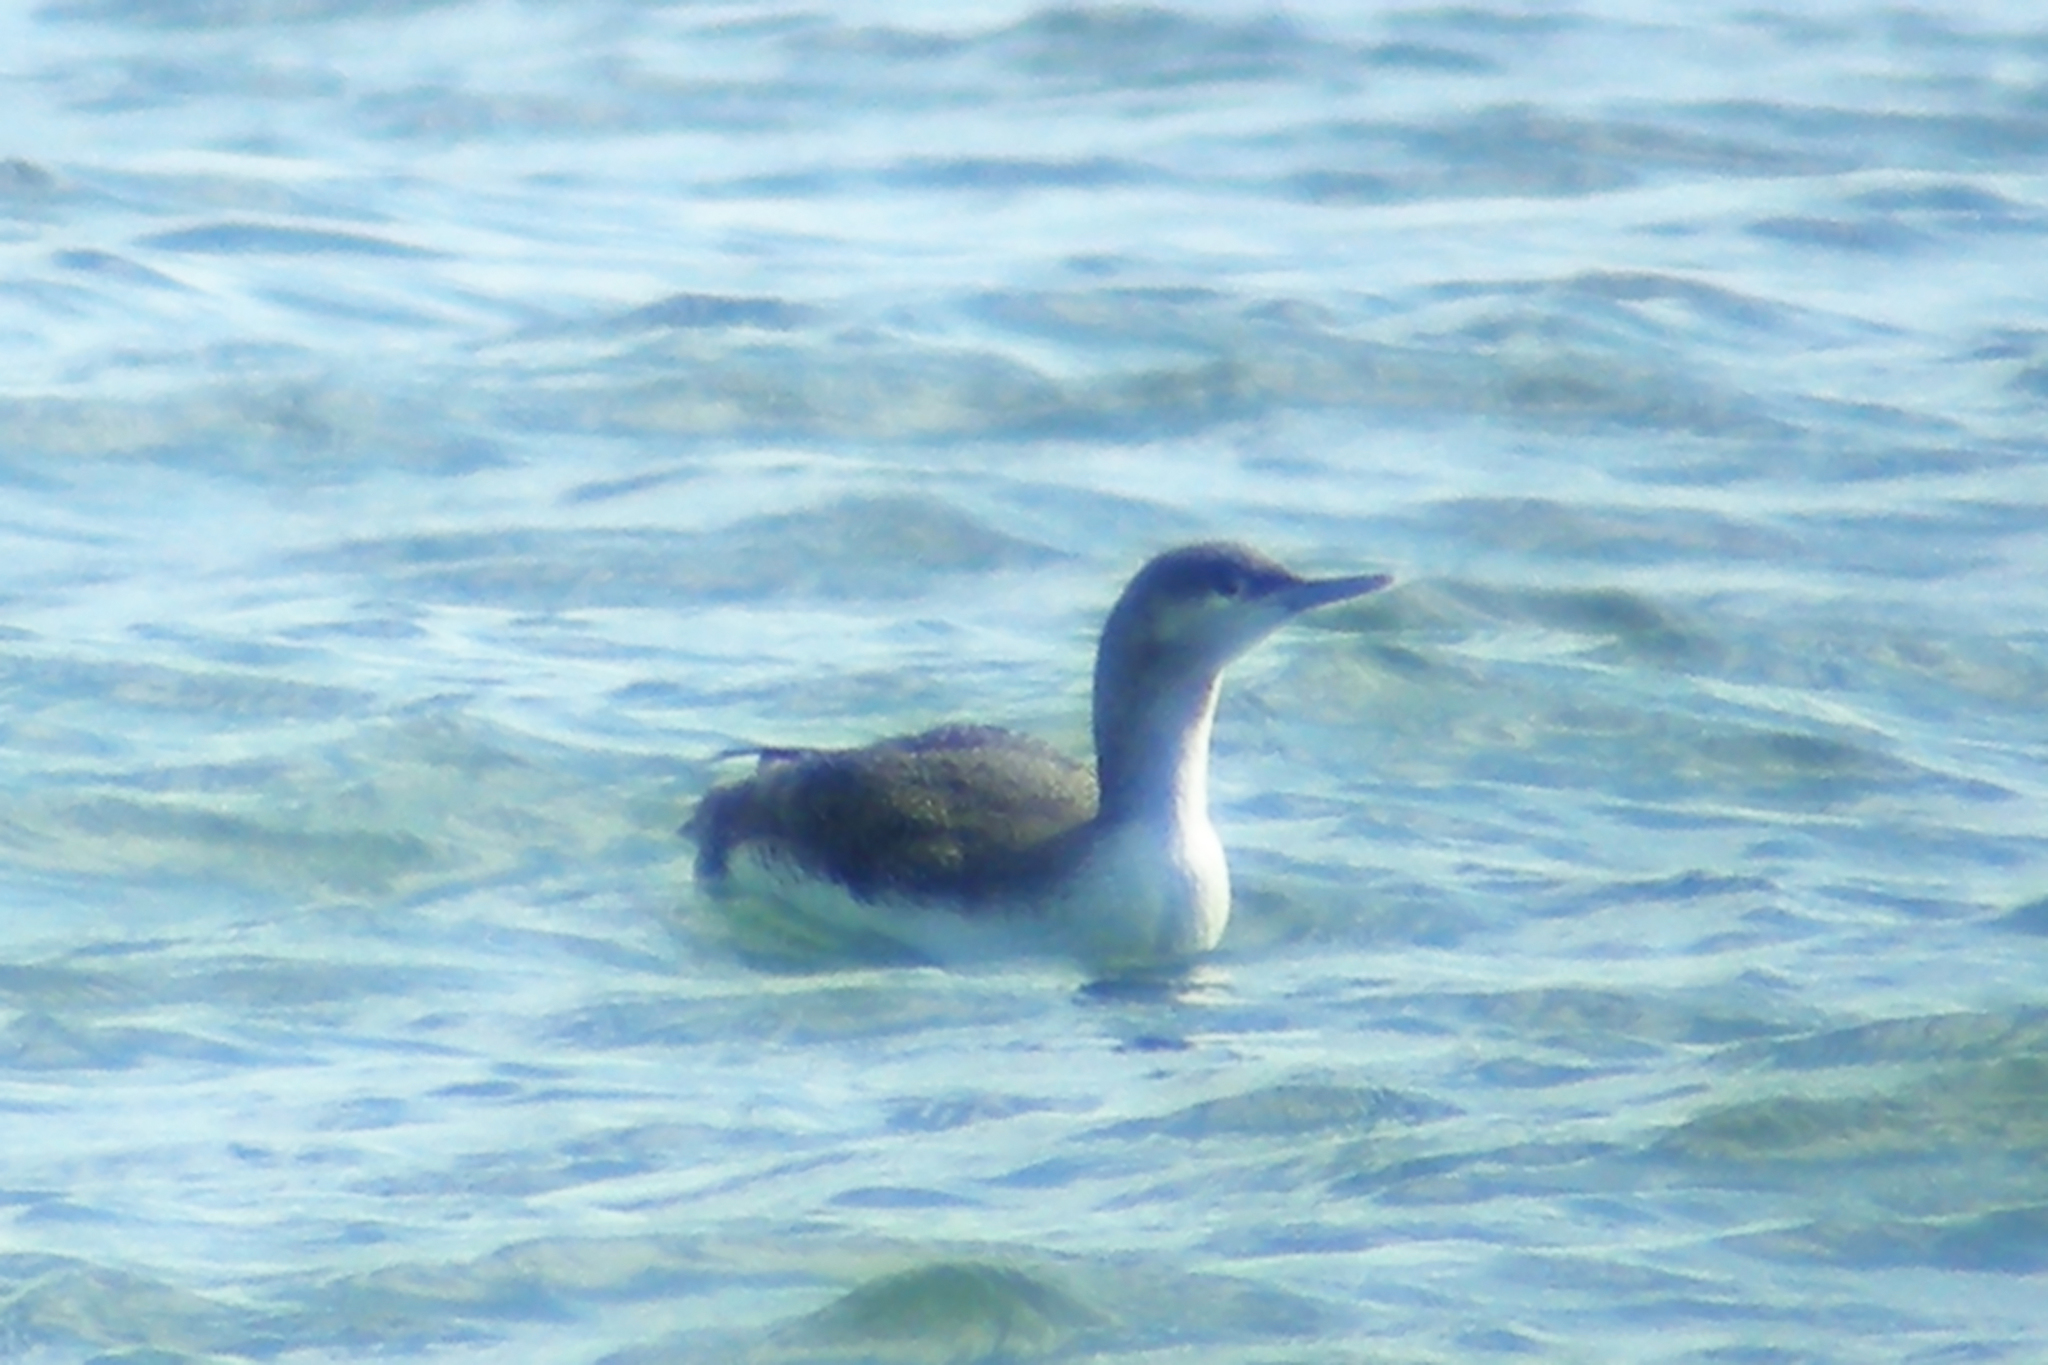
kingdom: Animalia
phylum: Chordata
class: Aves
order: Gaviiformes
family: Gaviidae
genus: Gavia
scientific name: Gavia stellata
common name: Red-throated loon
